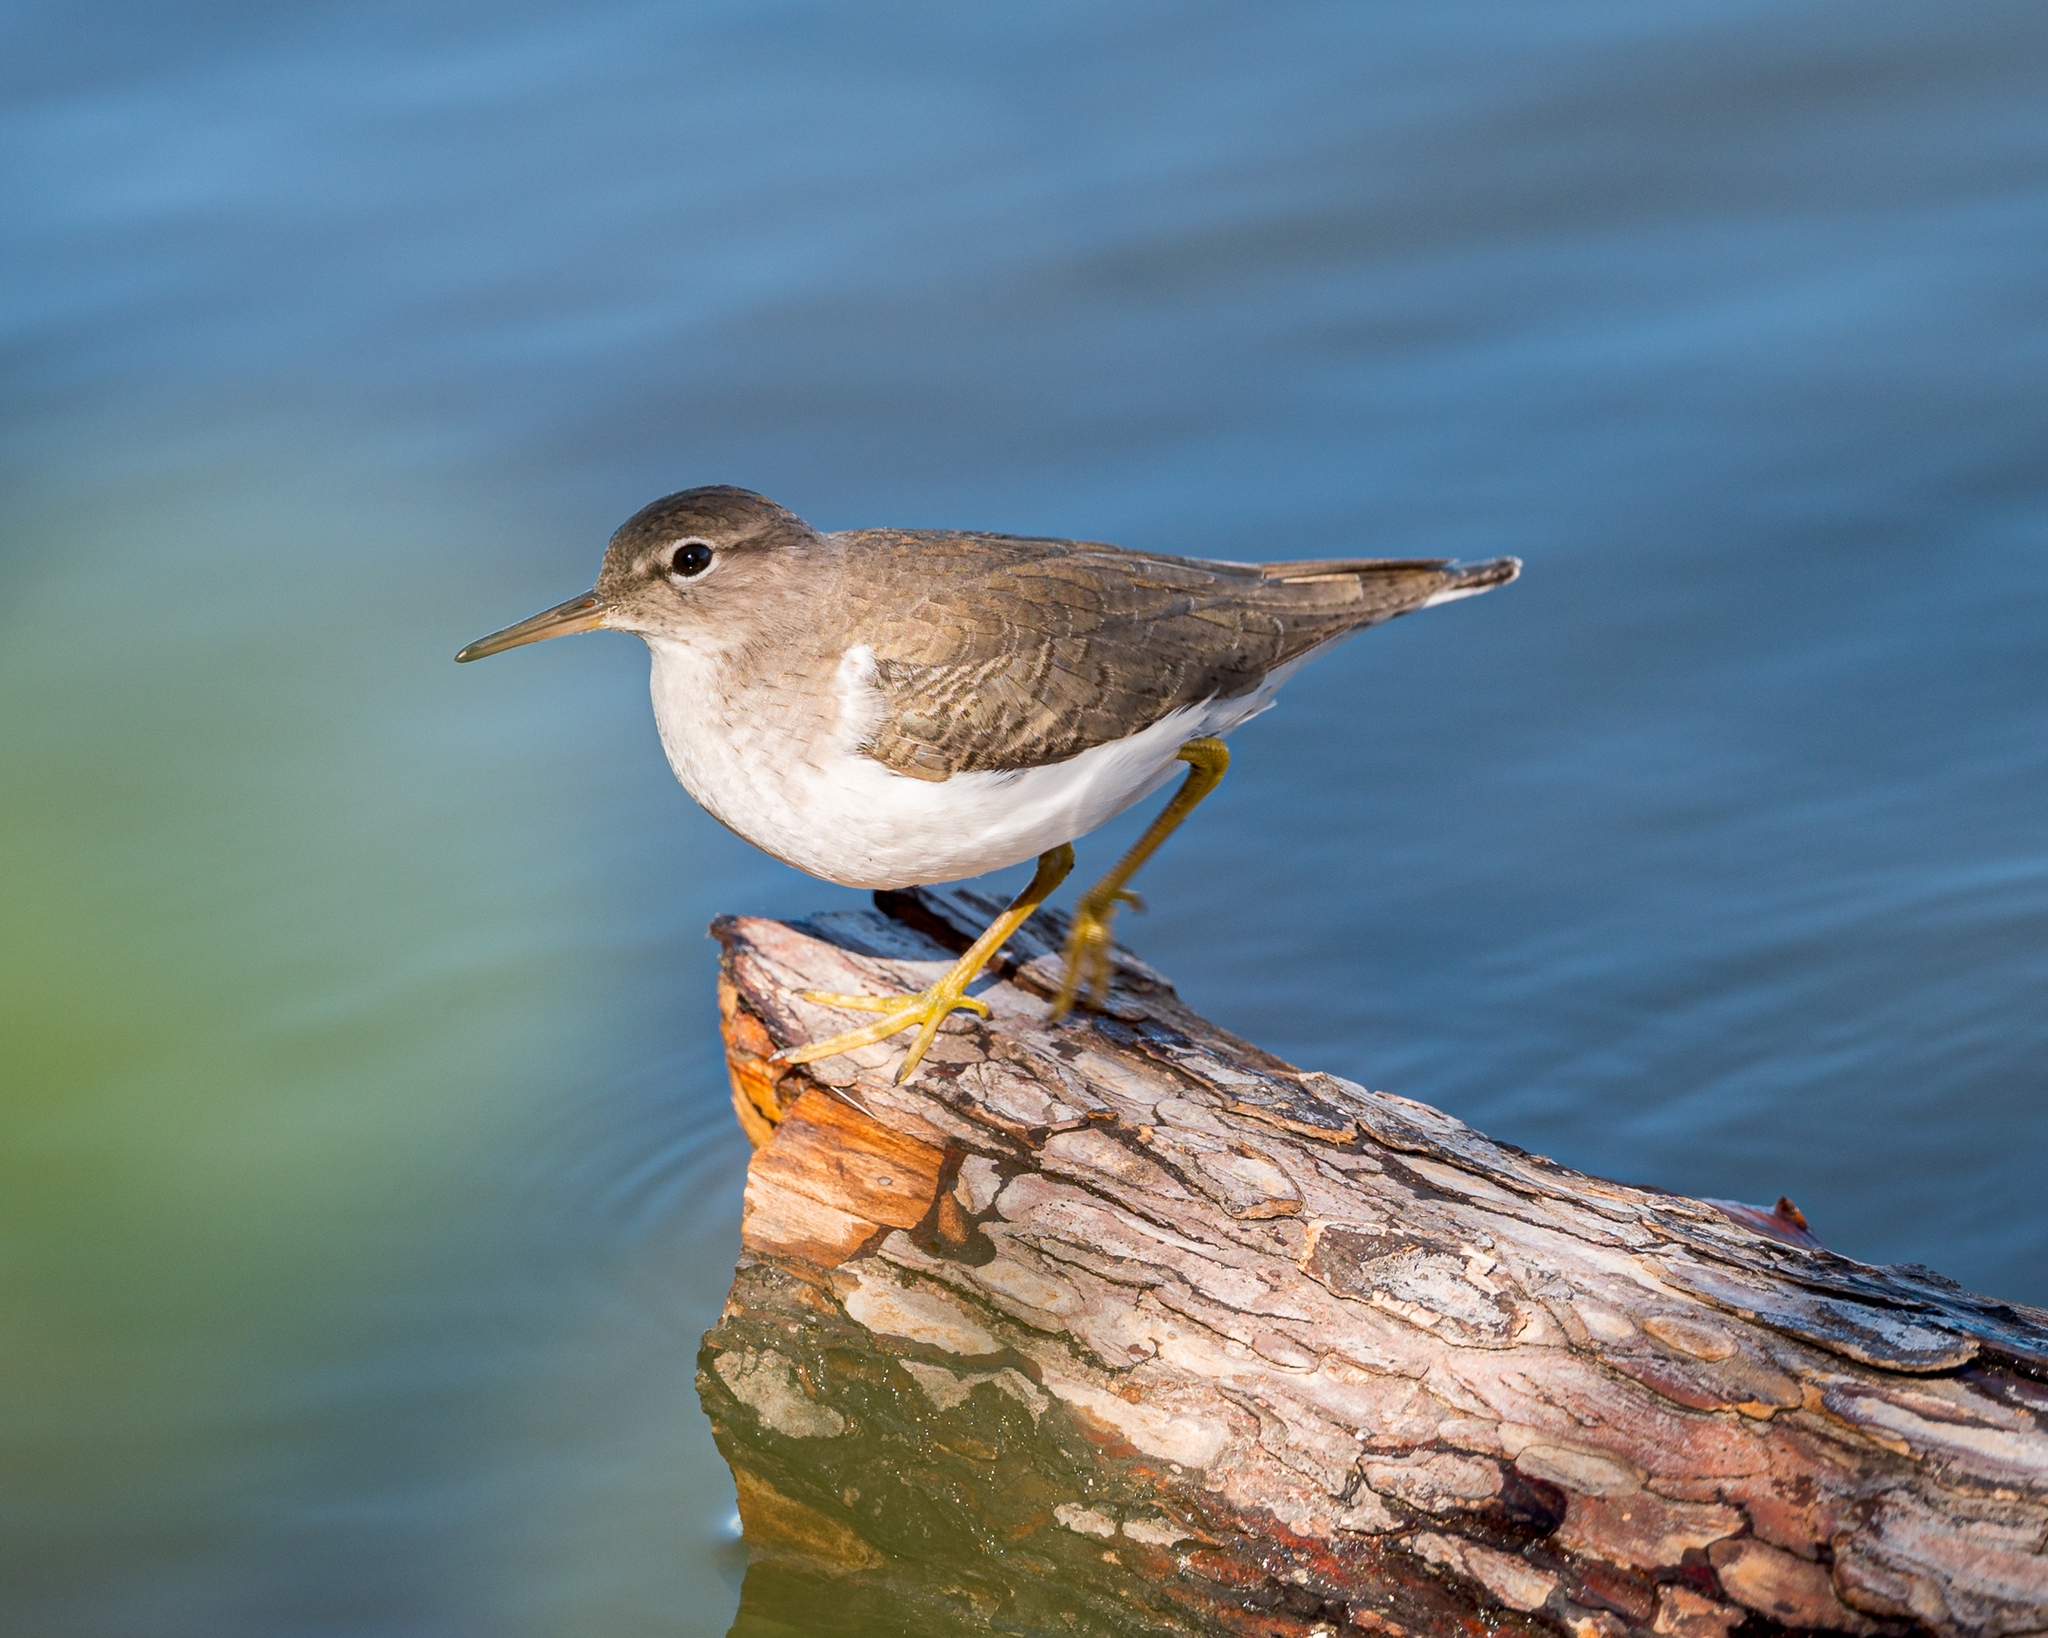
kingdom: Animalia
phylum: Chordata
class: Aves
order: Charadriiformes
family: Scolopacidae
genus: Actitis
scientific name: Actitis macularius
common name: Spotted sandpiper
